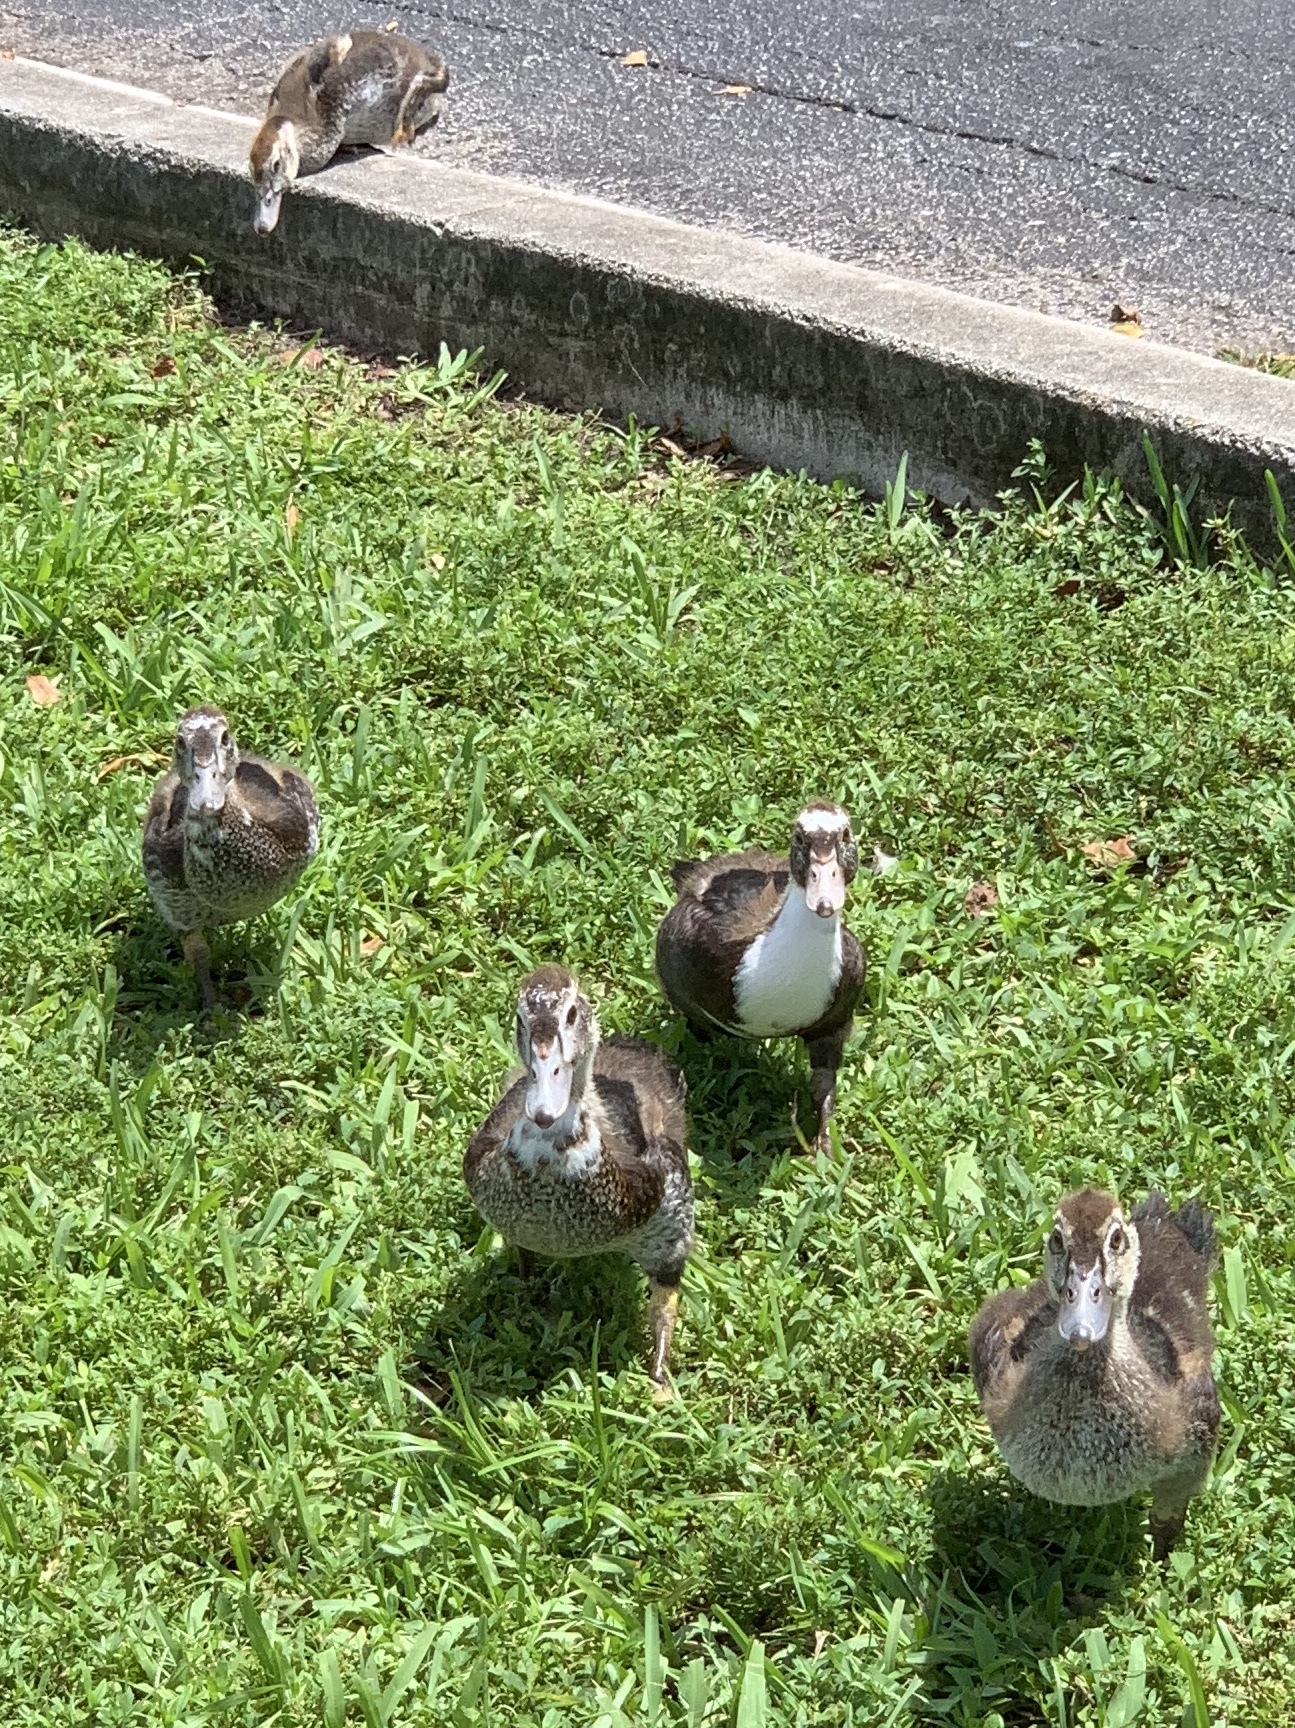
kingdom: Animalia
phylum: Chordata
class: Aves
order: Anseriformes
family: Anatidae
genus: Cairina
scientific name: Cairina moschata
